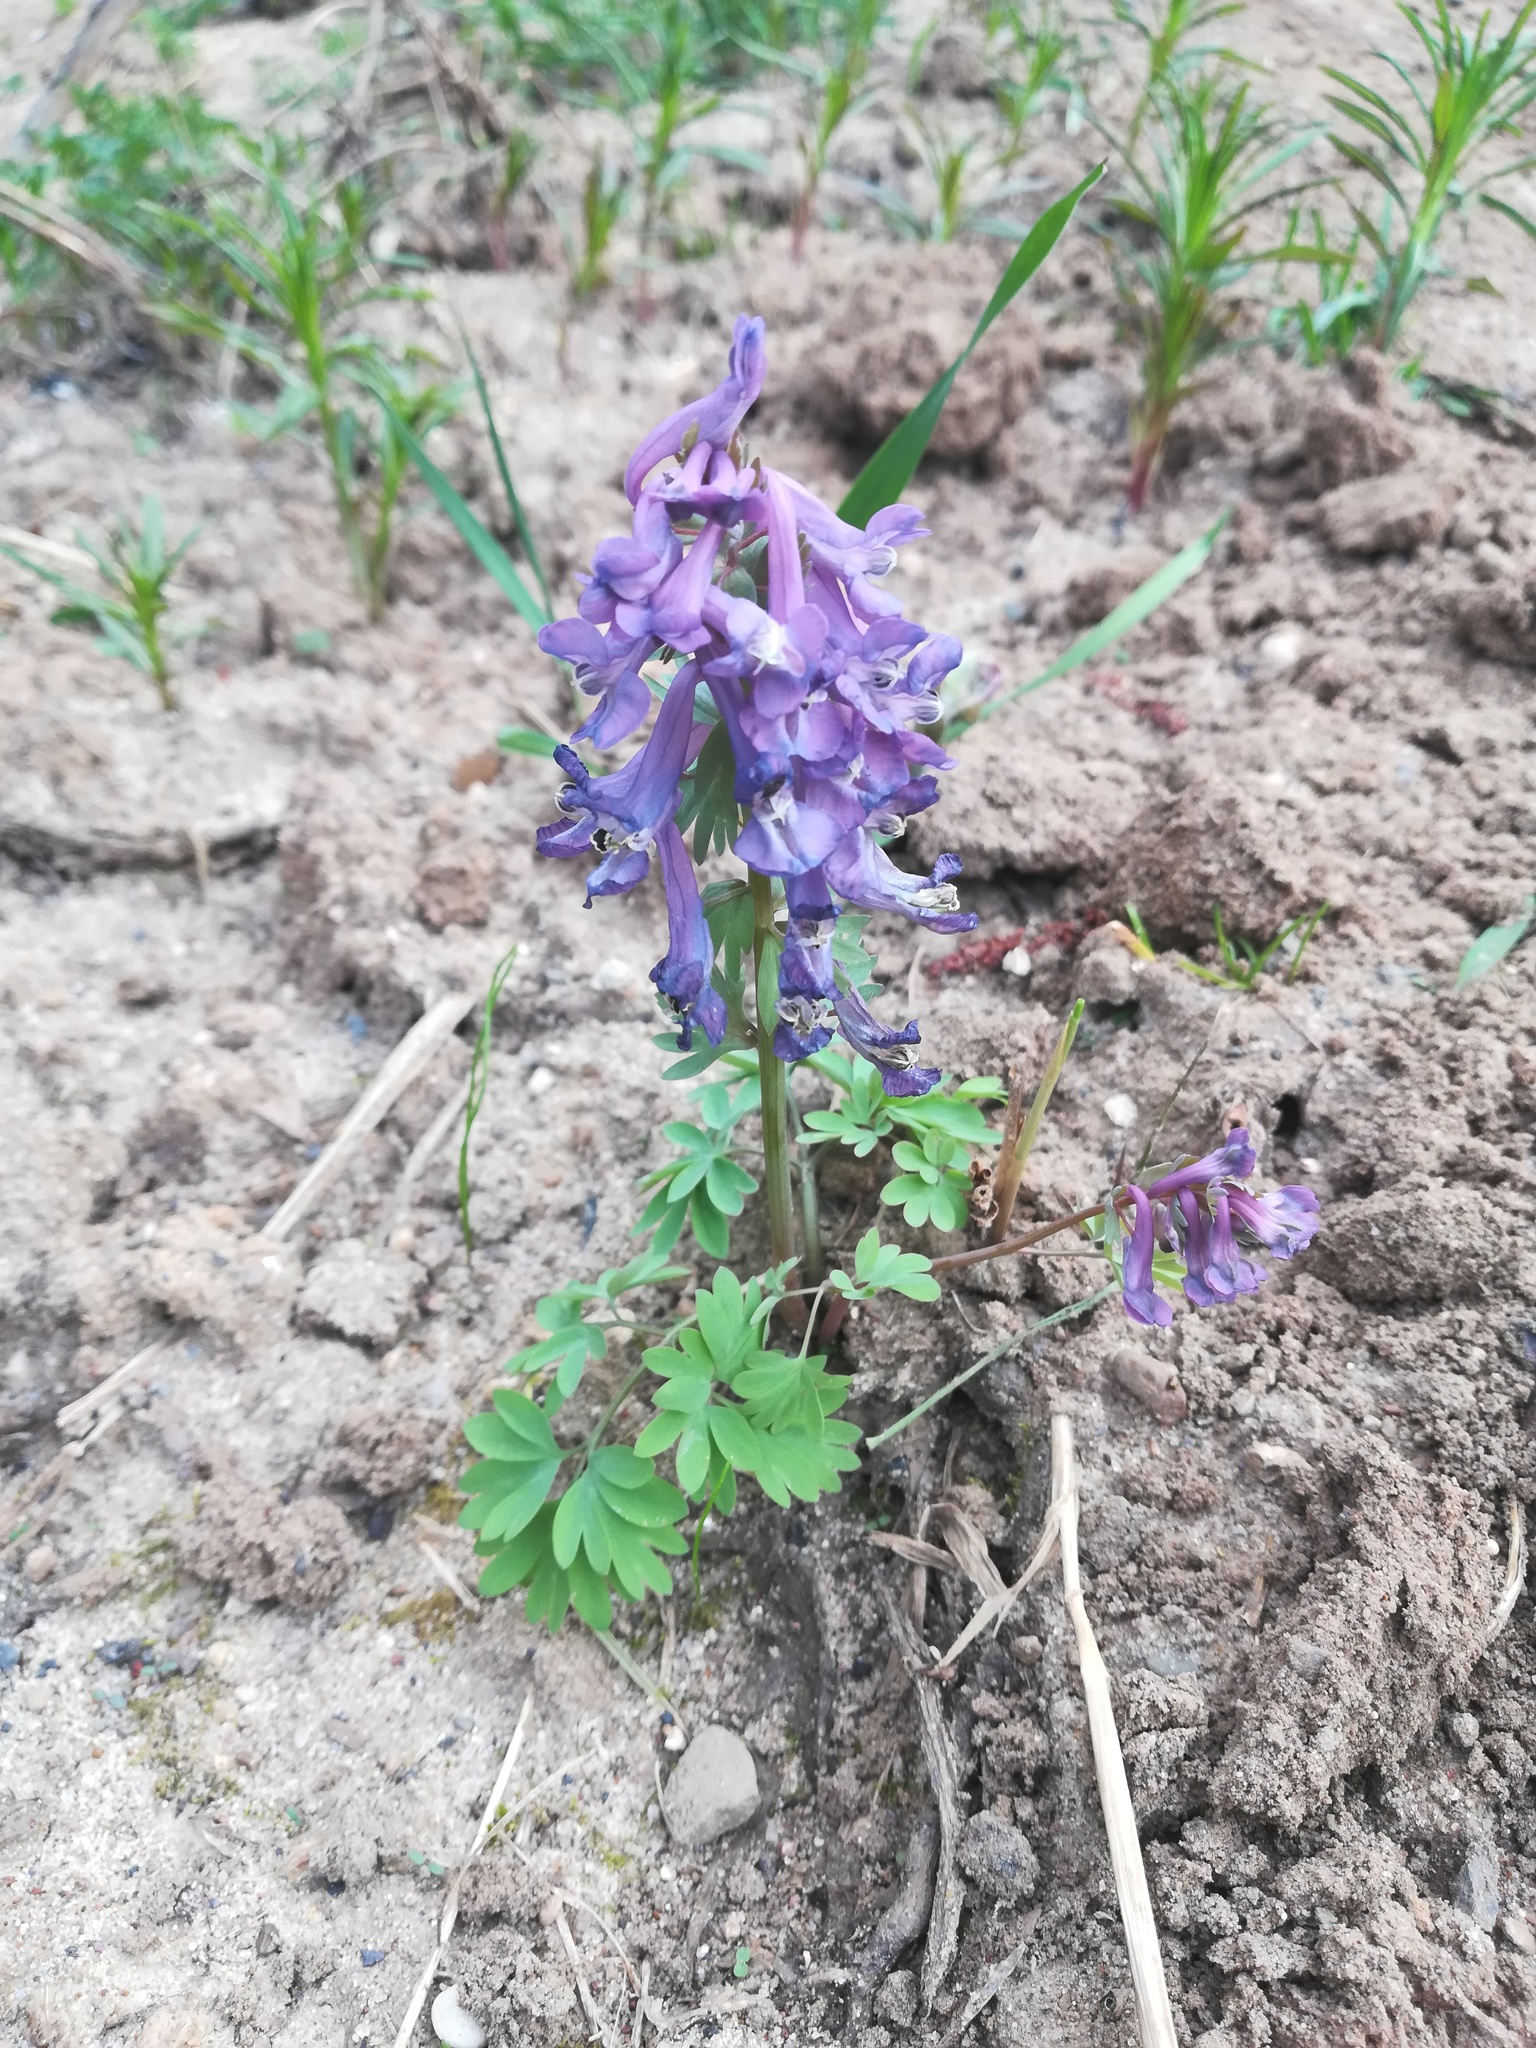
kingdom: Plantae
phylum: Tracheophyta
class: Magnoliopsida
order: Ranunculales
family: Papaveraceae
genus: Corydalis
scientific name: Corydalis solida
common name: Bird-in-a-bush
